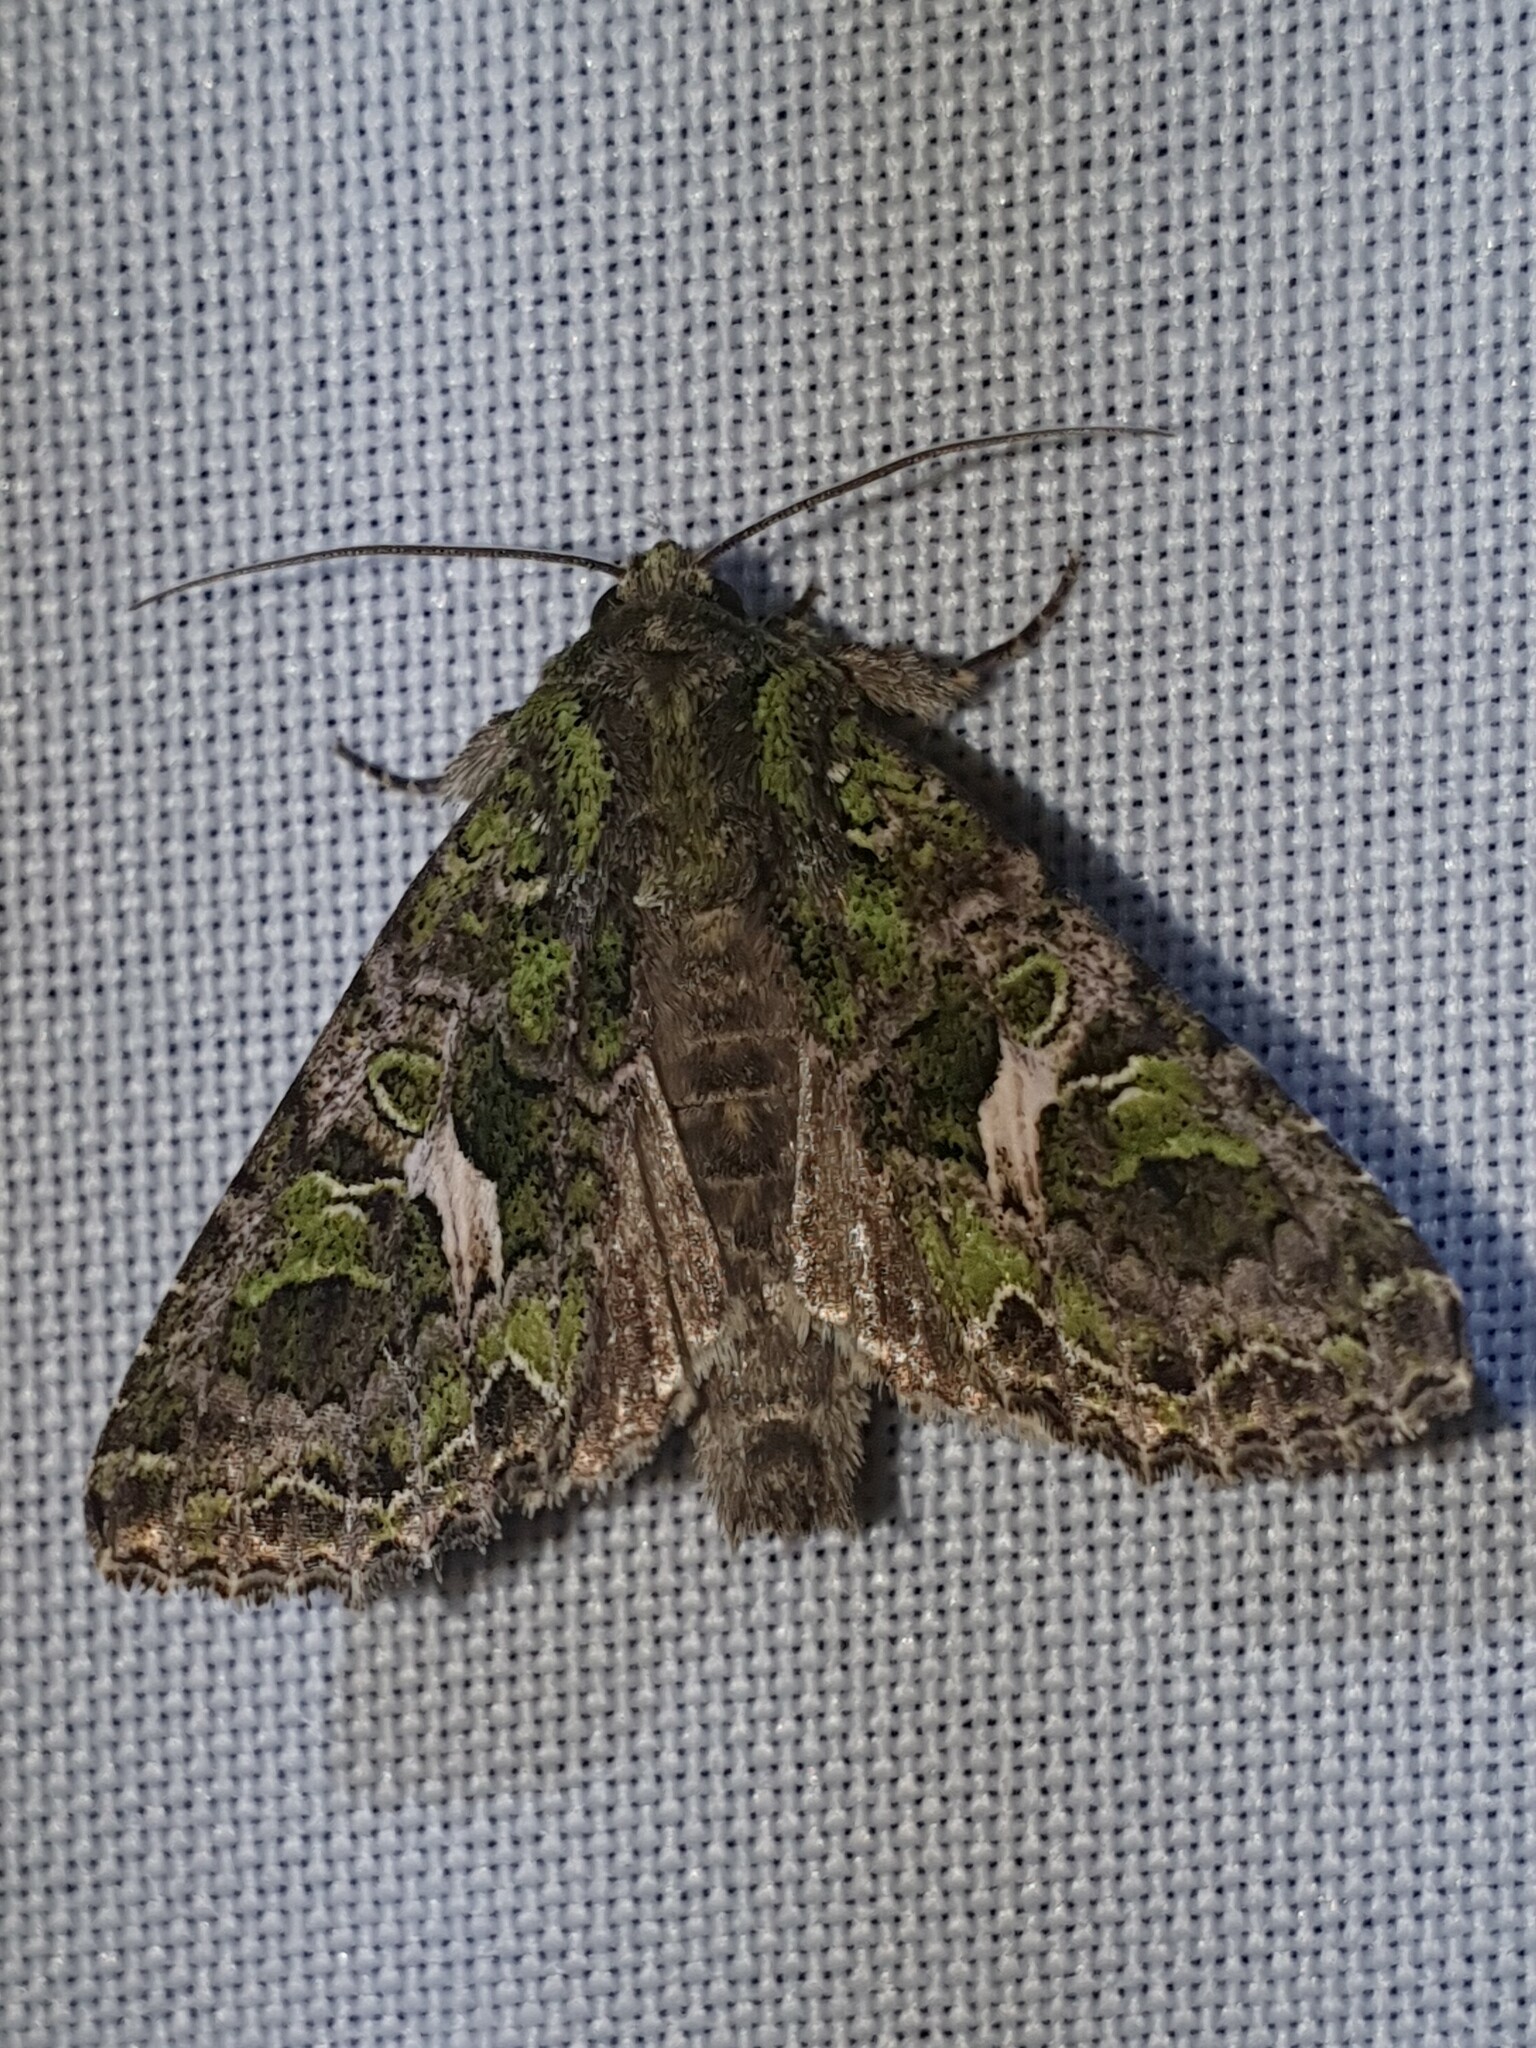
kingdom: Animalia
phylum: Arthropoda
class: Insecta
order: Lepidoptera
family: Noctuidae
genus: Trachea
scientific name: Trachea atriplicis
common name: Orache moth
